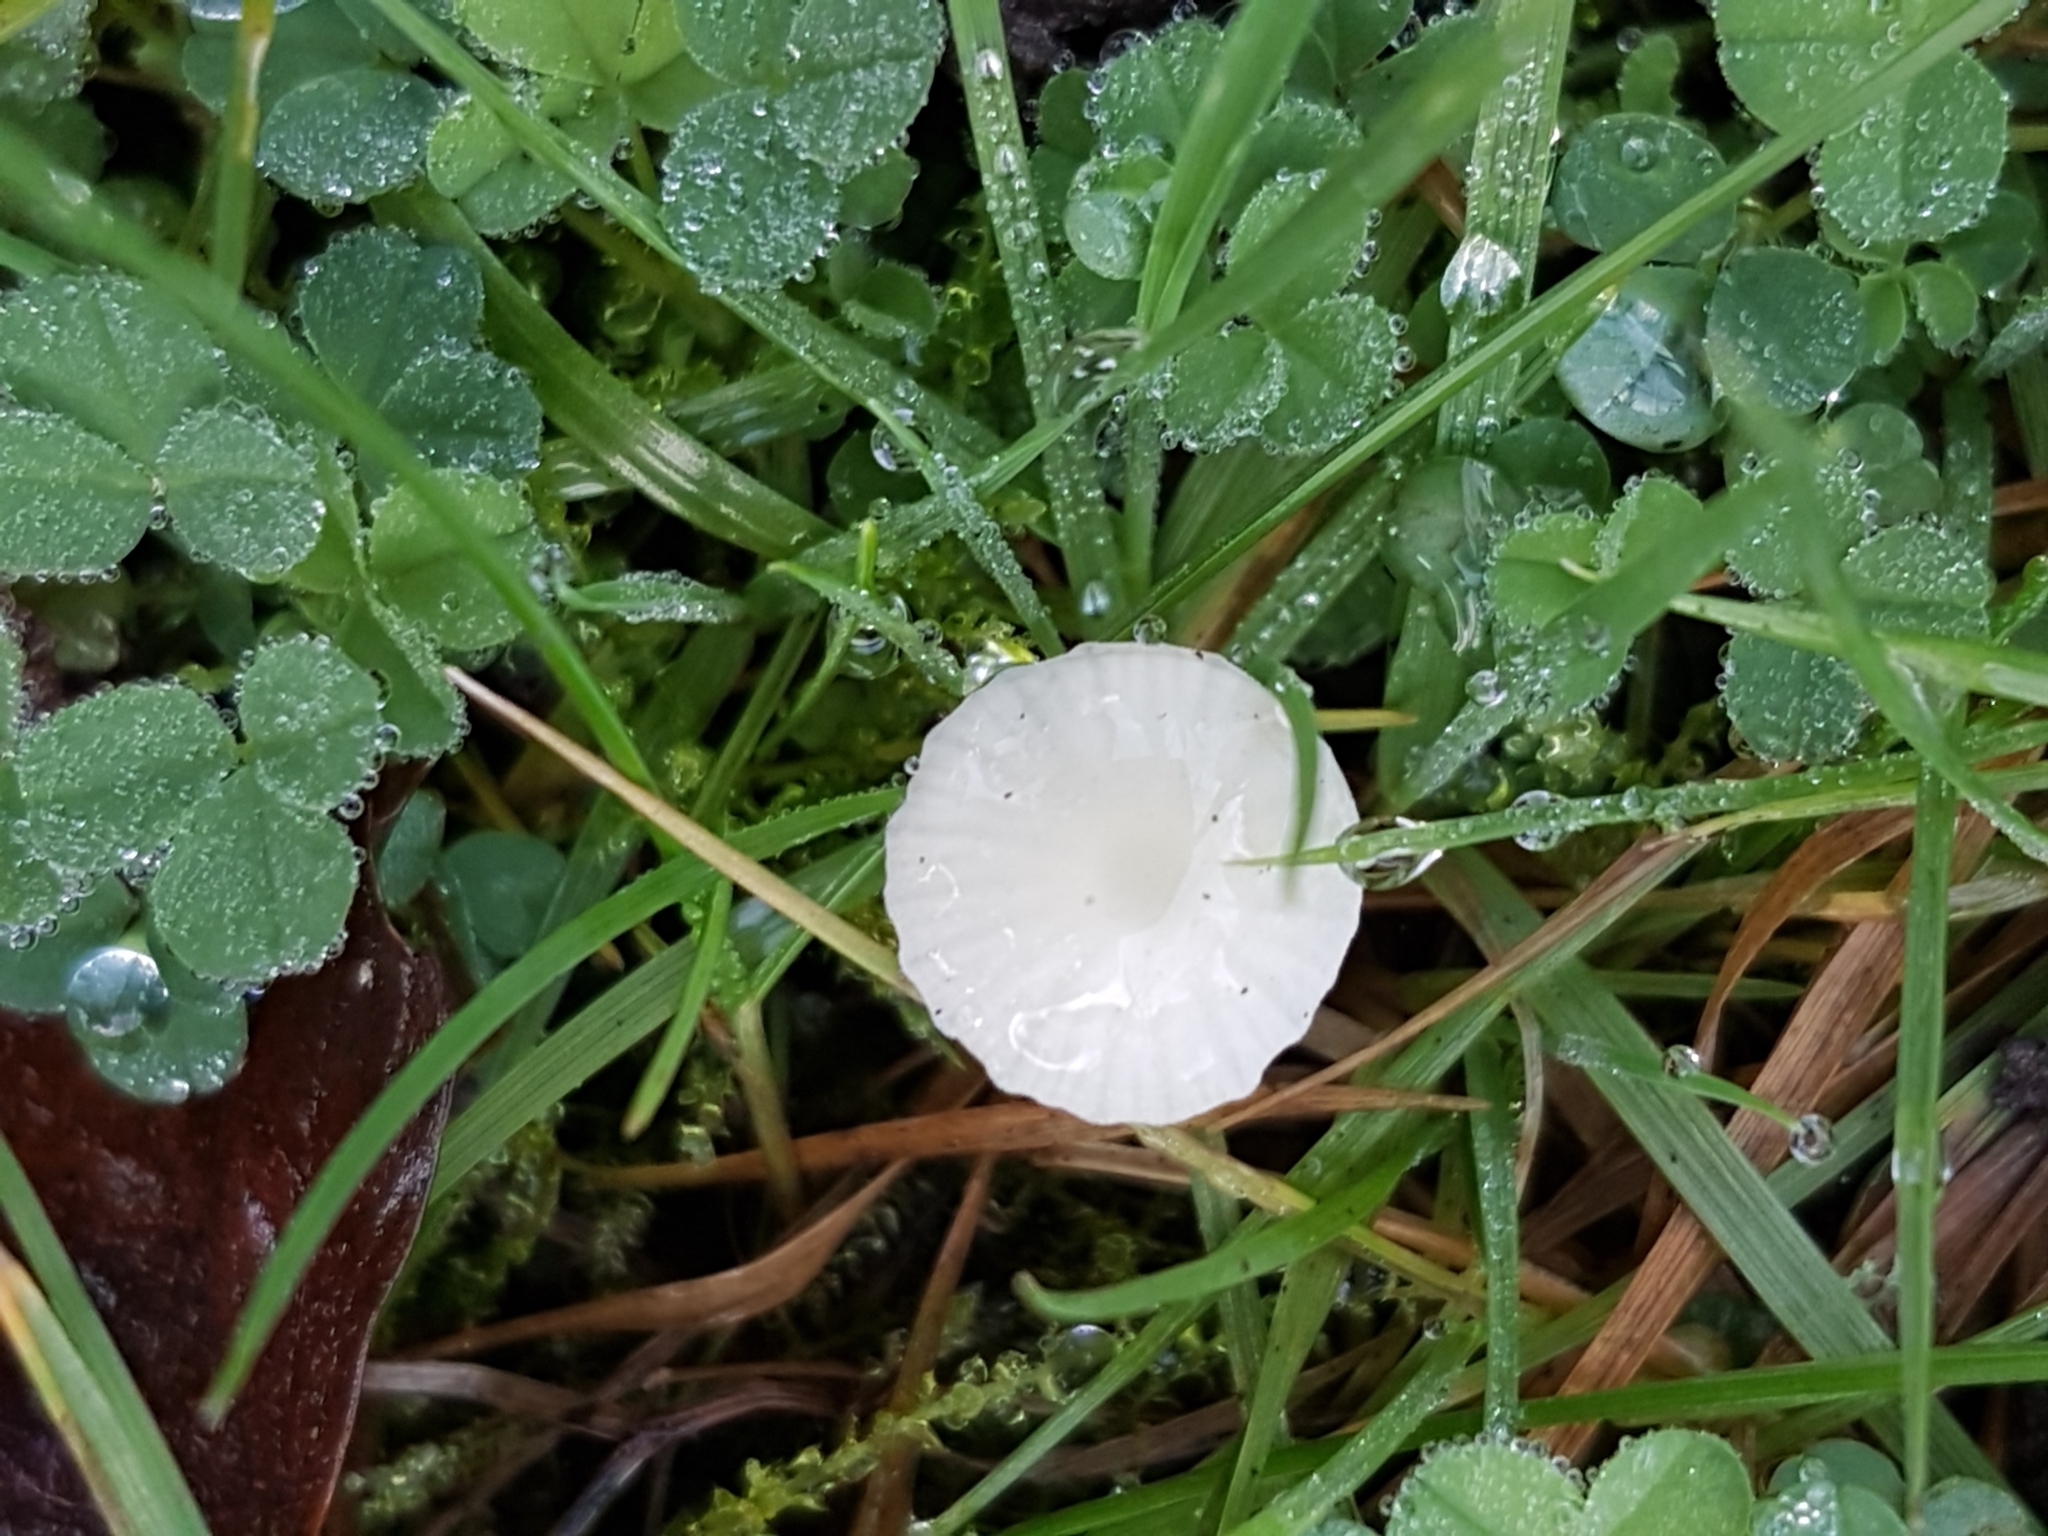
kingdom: Fungi
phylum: Basidiomycota
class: Agaricomycetes
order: Agaricales
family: Hygrophoraceae
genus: Cuphophyllus
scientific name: Cuphophyllus virgineus
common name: Snowy waxcap
